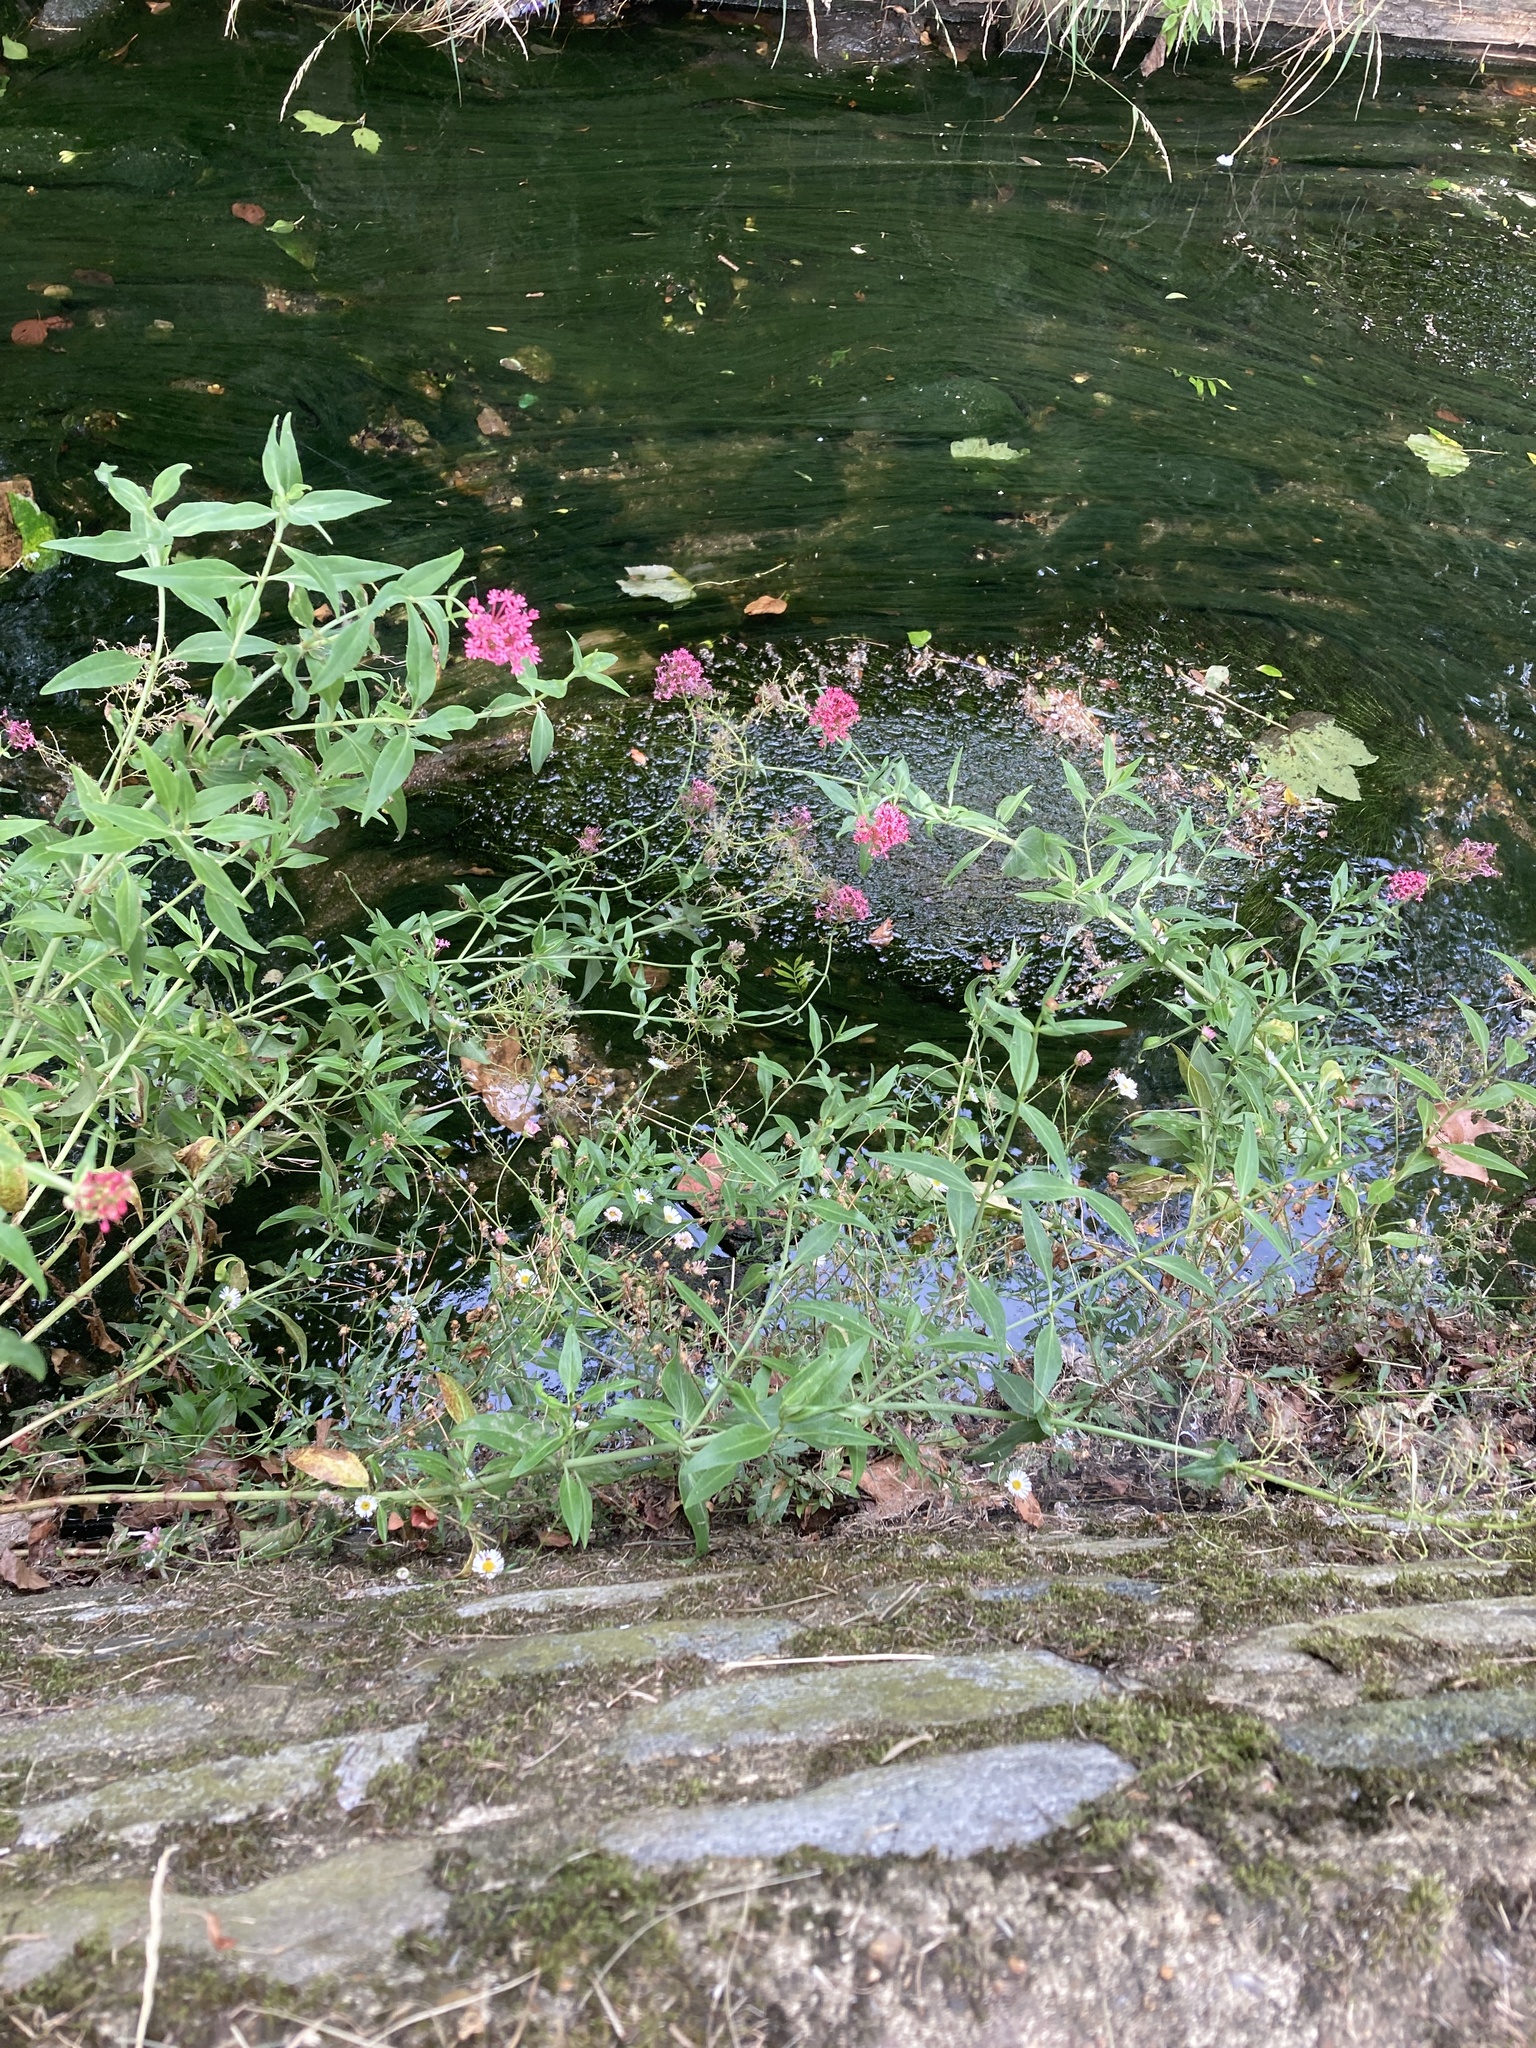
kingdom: Plantae
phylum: Tracheophyta
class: Magnoliopsida
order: Dipsacales
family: Caprifoliaceae
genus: Centranthus
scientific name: Centranthus ruber
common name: Red valerian
